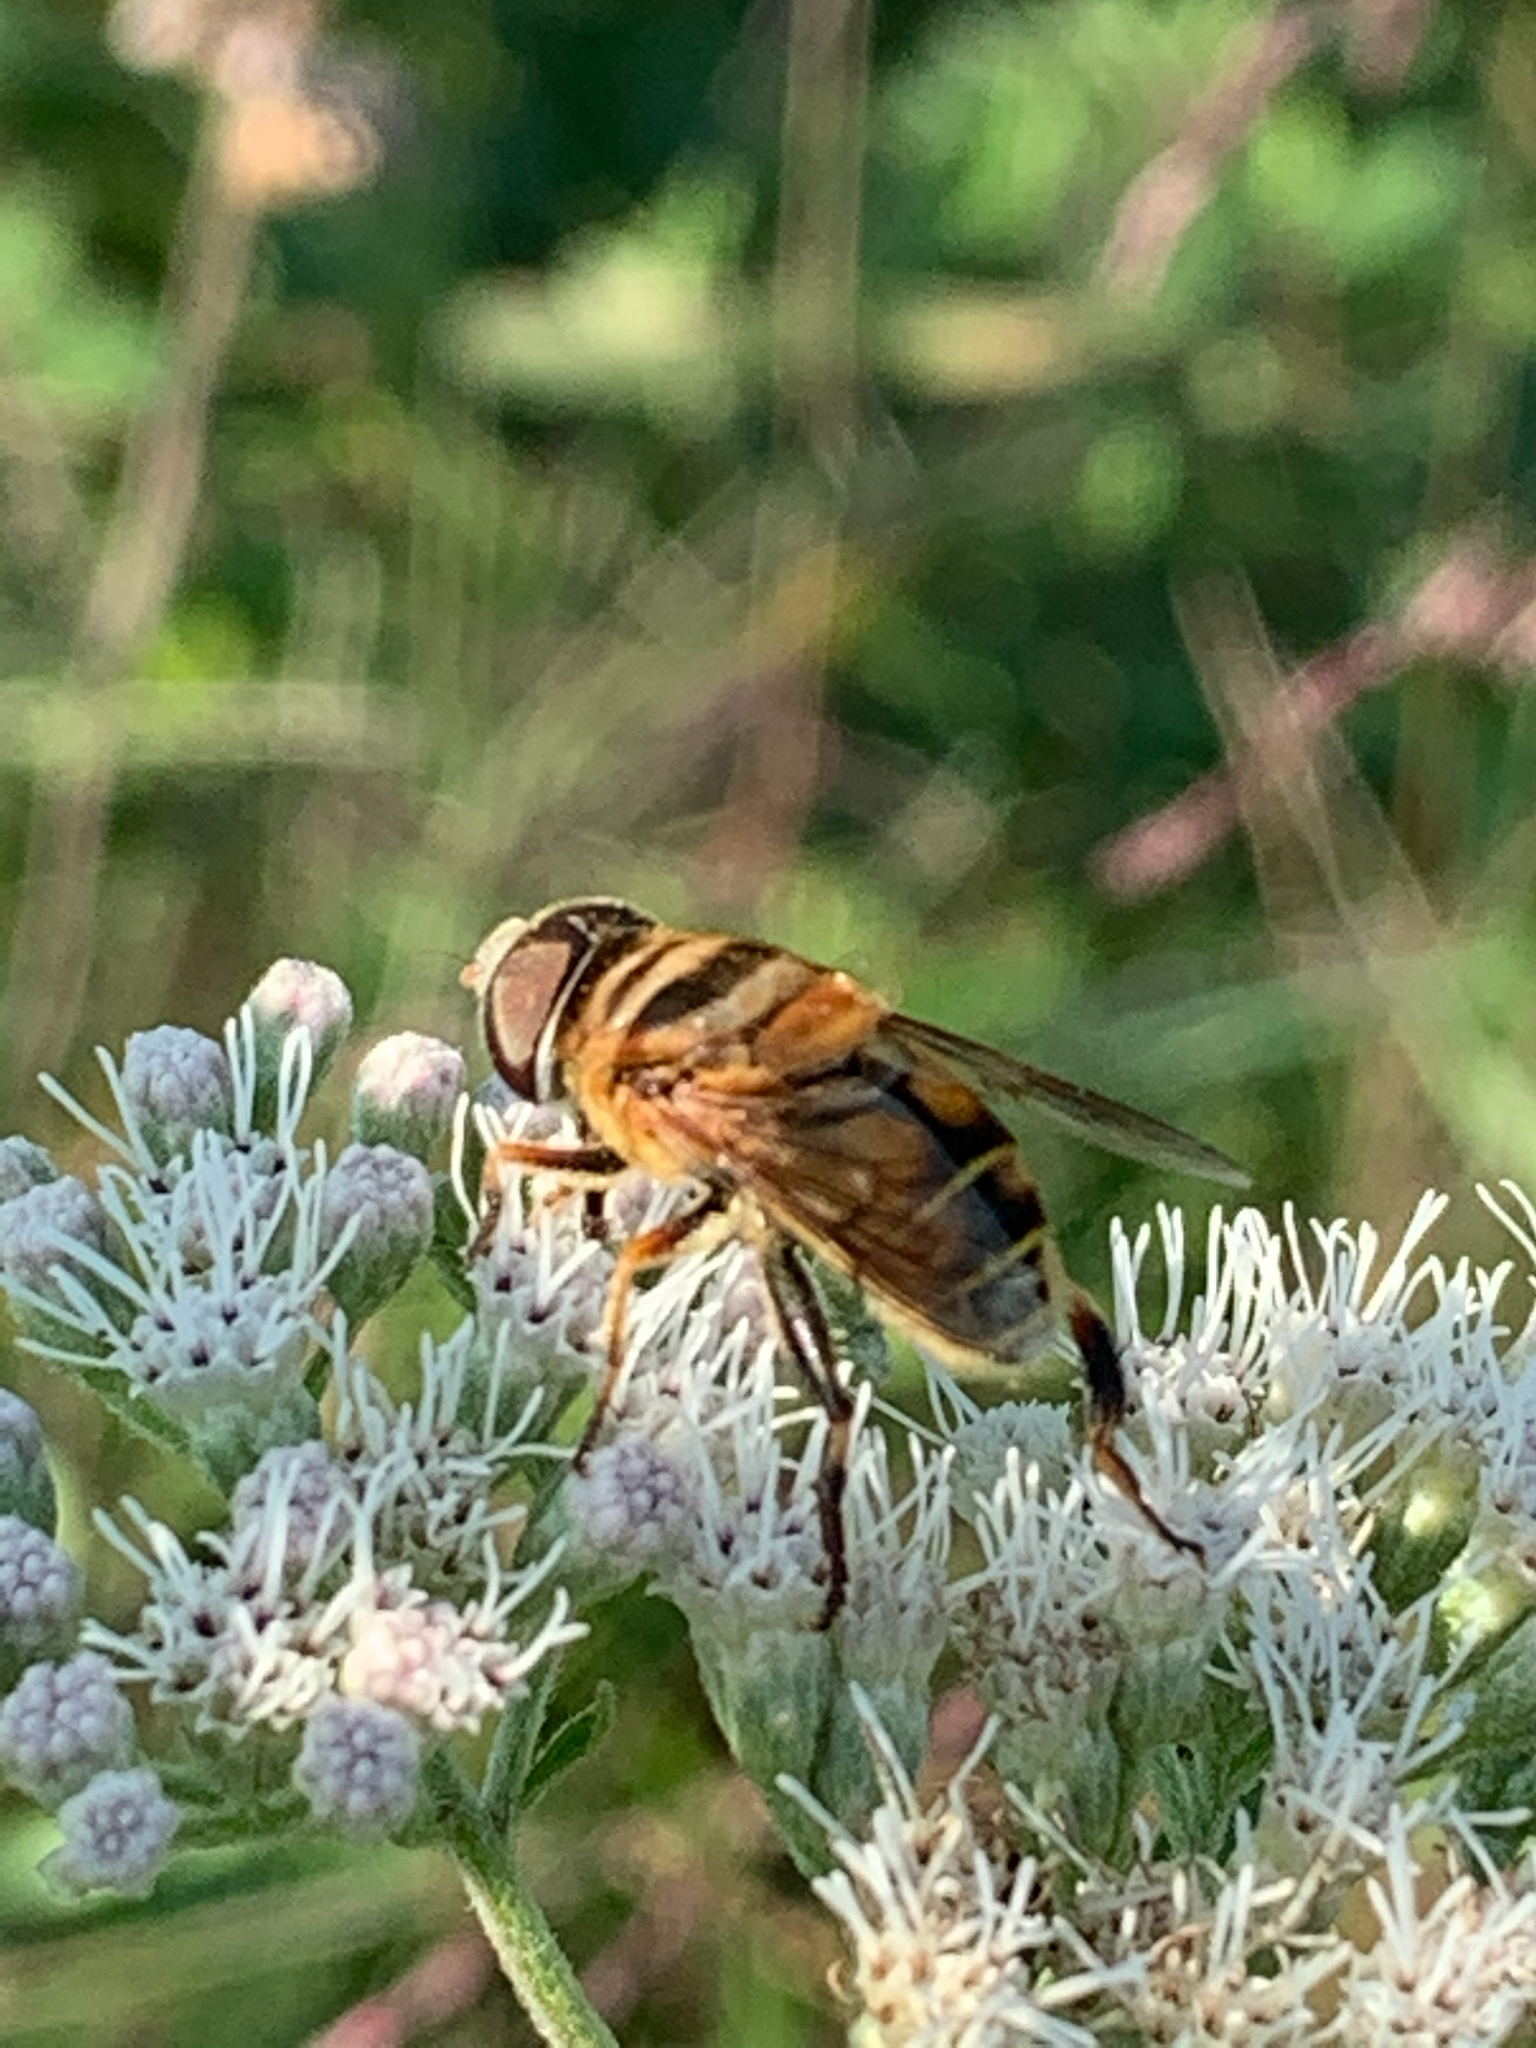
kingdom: Animalia
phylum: Arthropoda
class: Insecta
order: Diptera
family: Syrphidae
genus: Palpada
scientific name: Palpada vinetorum
